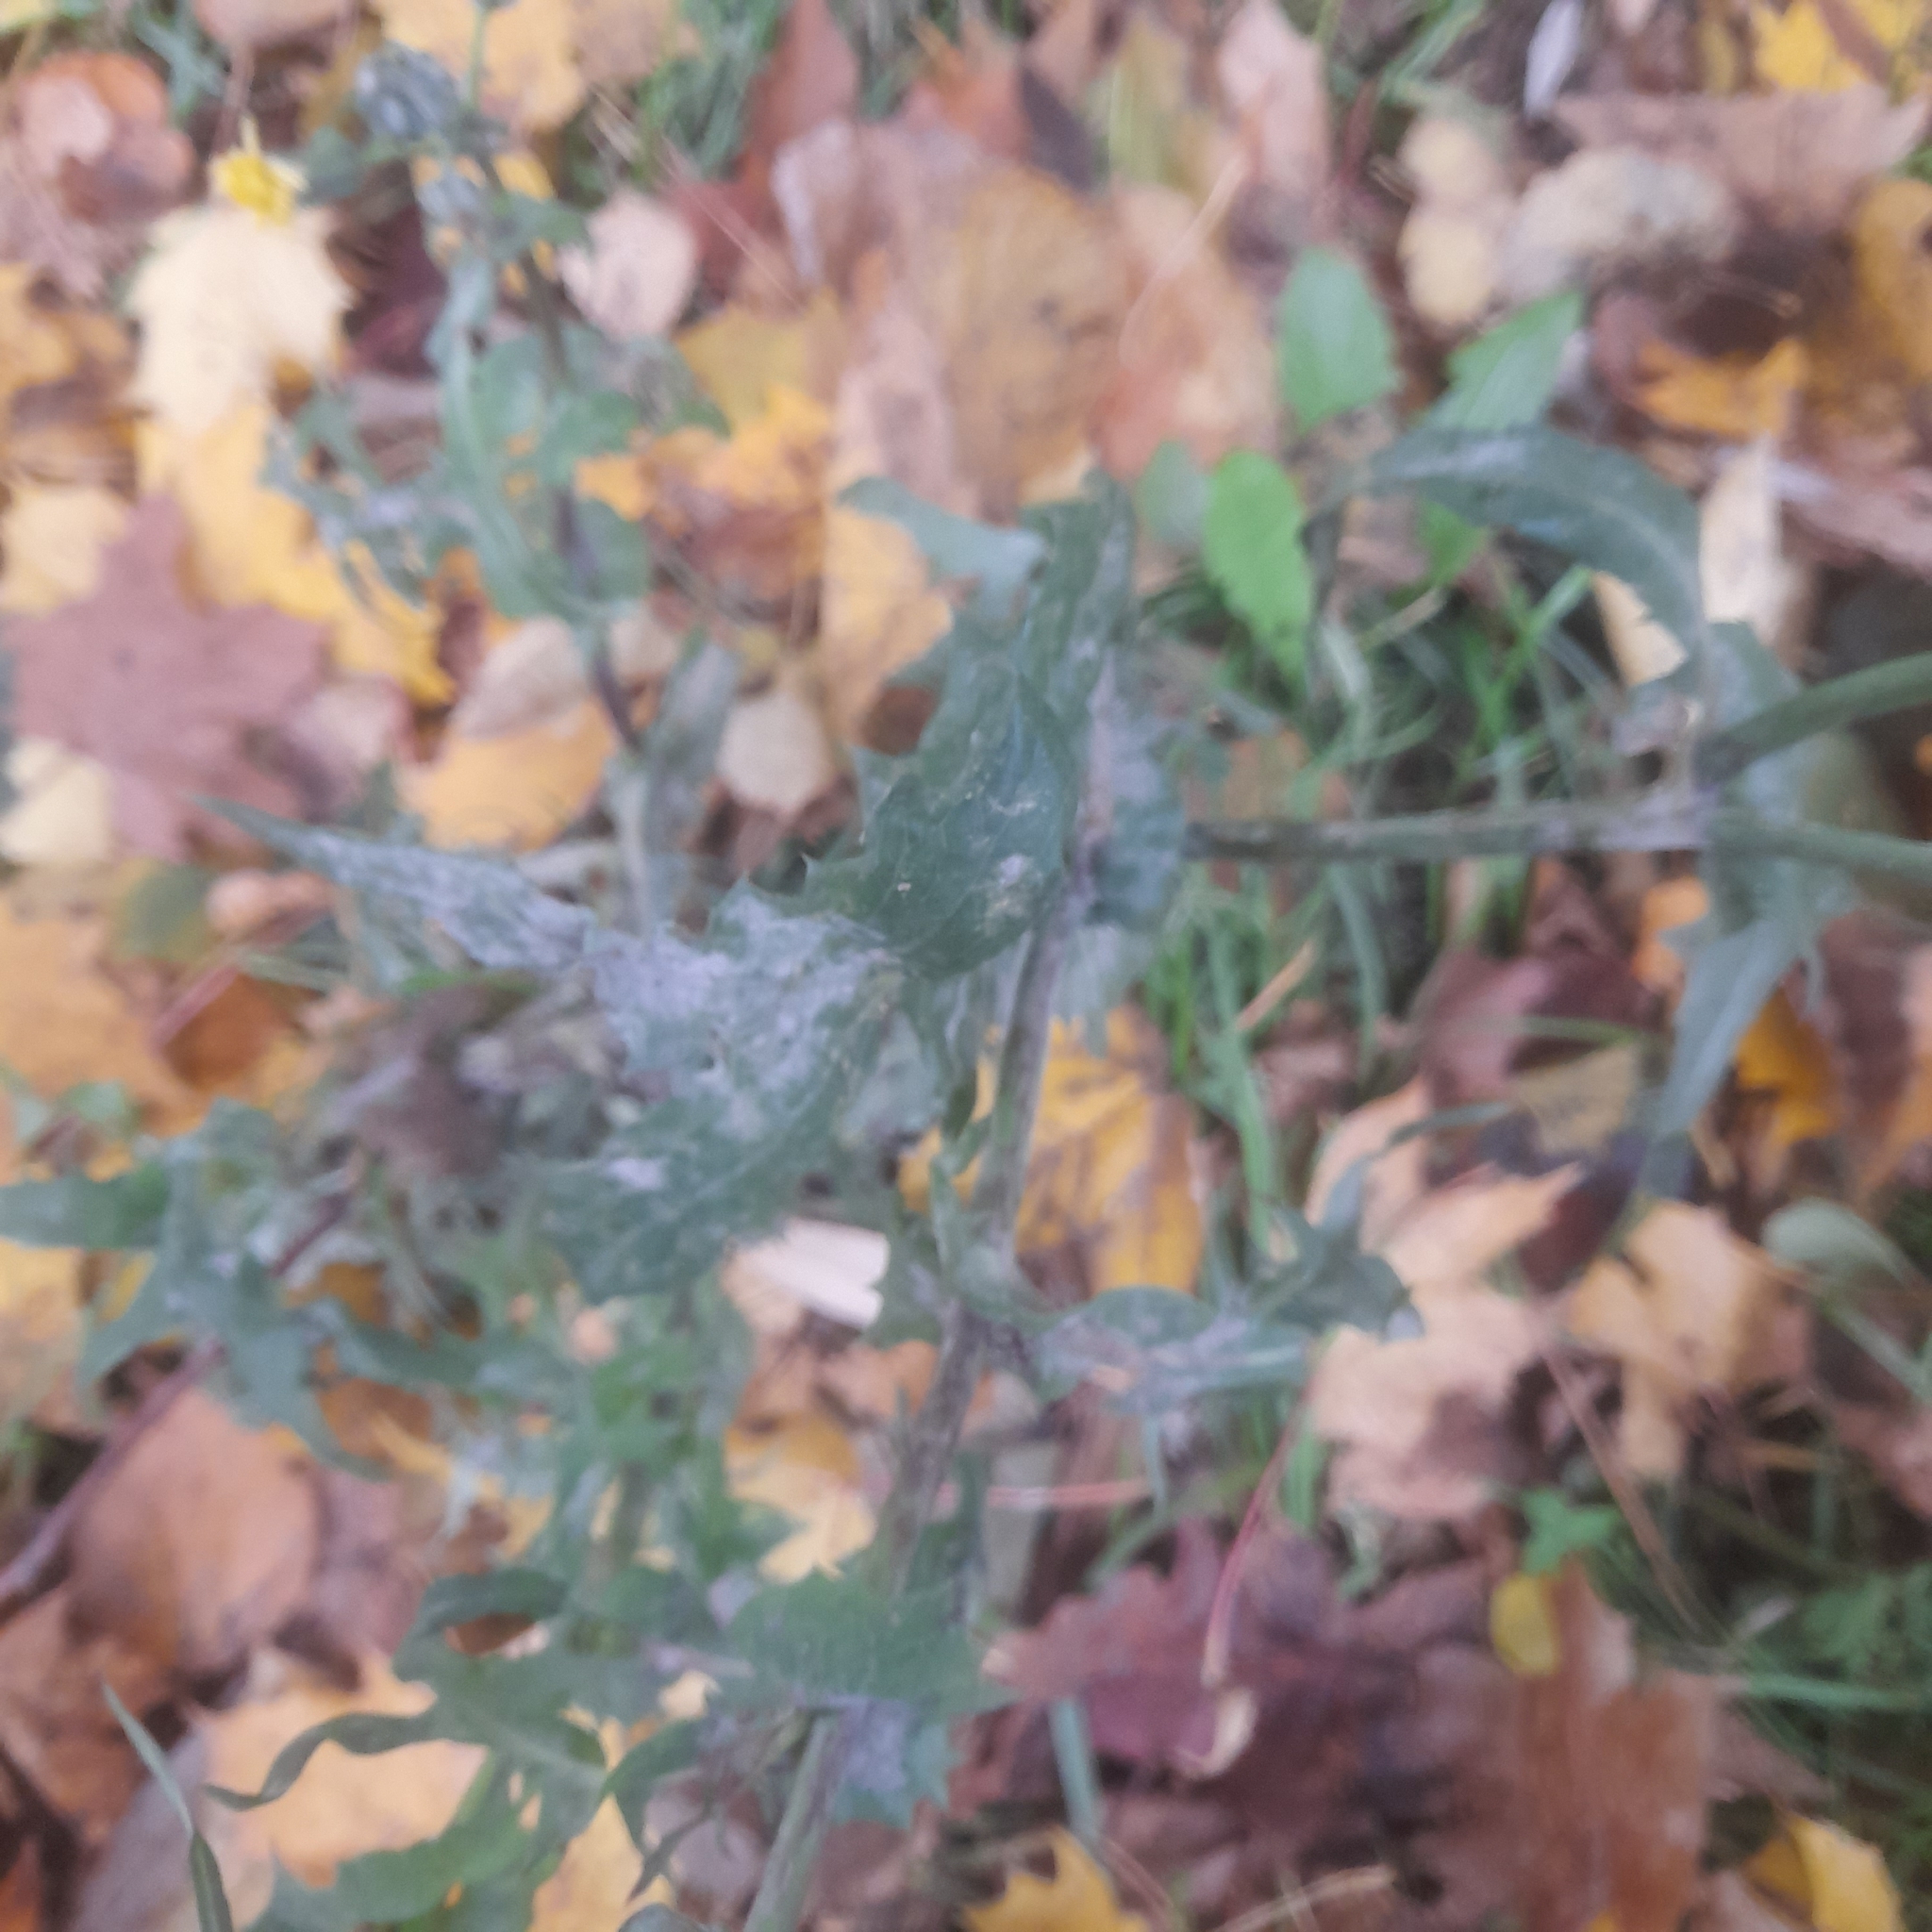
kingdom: Plantae
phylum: Tracheophyta
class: Magnoliopsida
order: Asterales
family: Asteraceae
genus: Sonchus
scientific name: Sonchus oleraceus
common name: Common sowthistle
